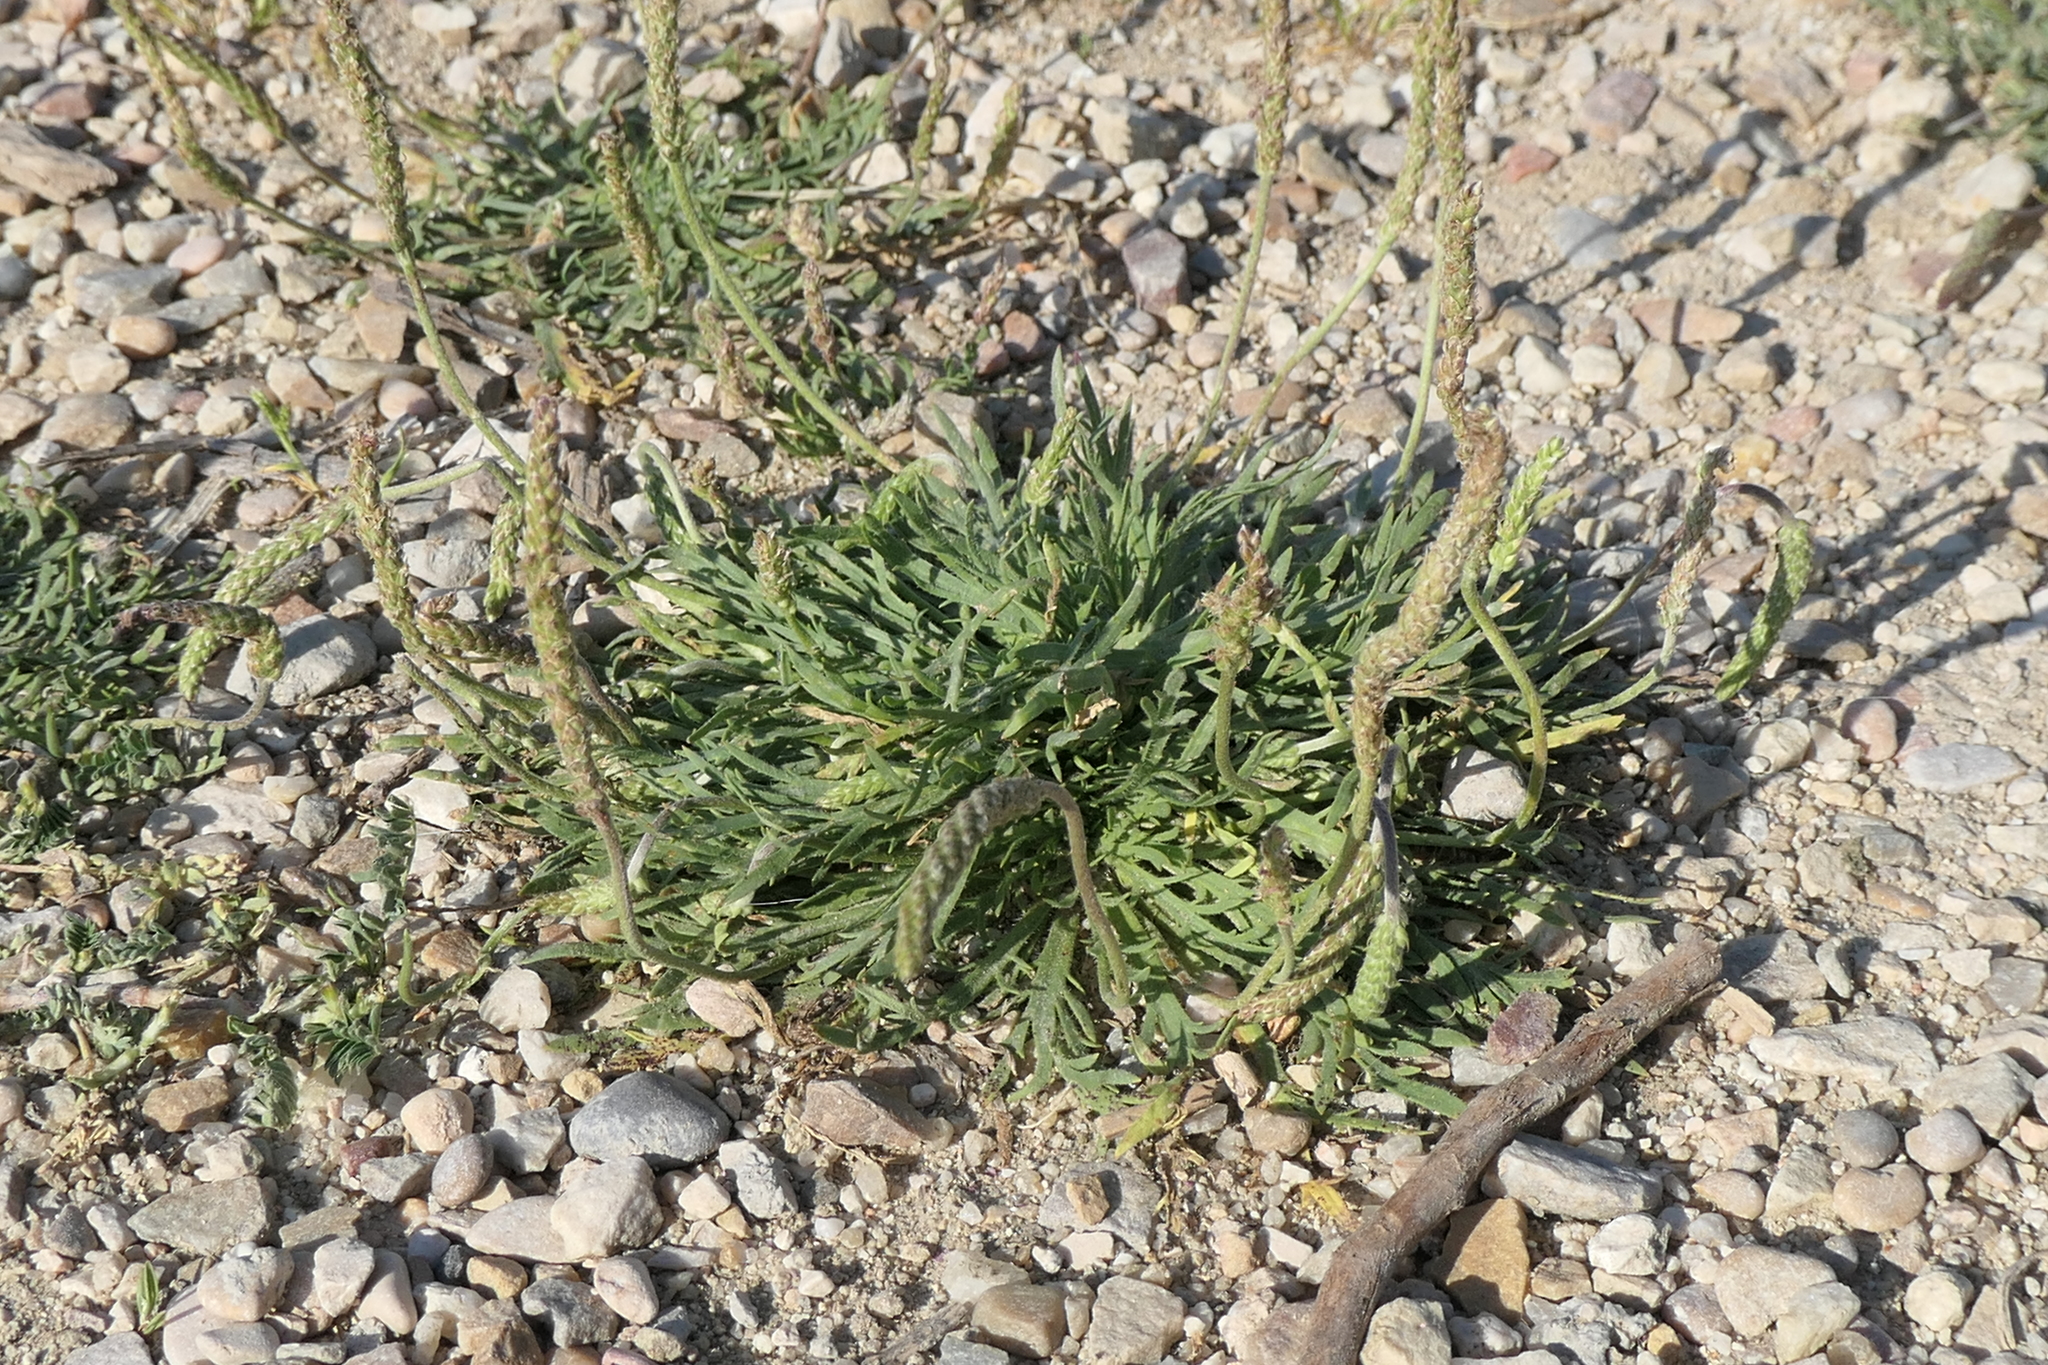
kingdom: Plantae
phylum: Tracheophyta
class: Magnoliopsida
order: Lamiales
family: Plantaginaceae
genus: Plantago
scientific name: Plantago coronopus
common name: Buck's-horn plantain
